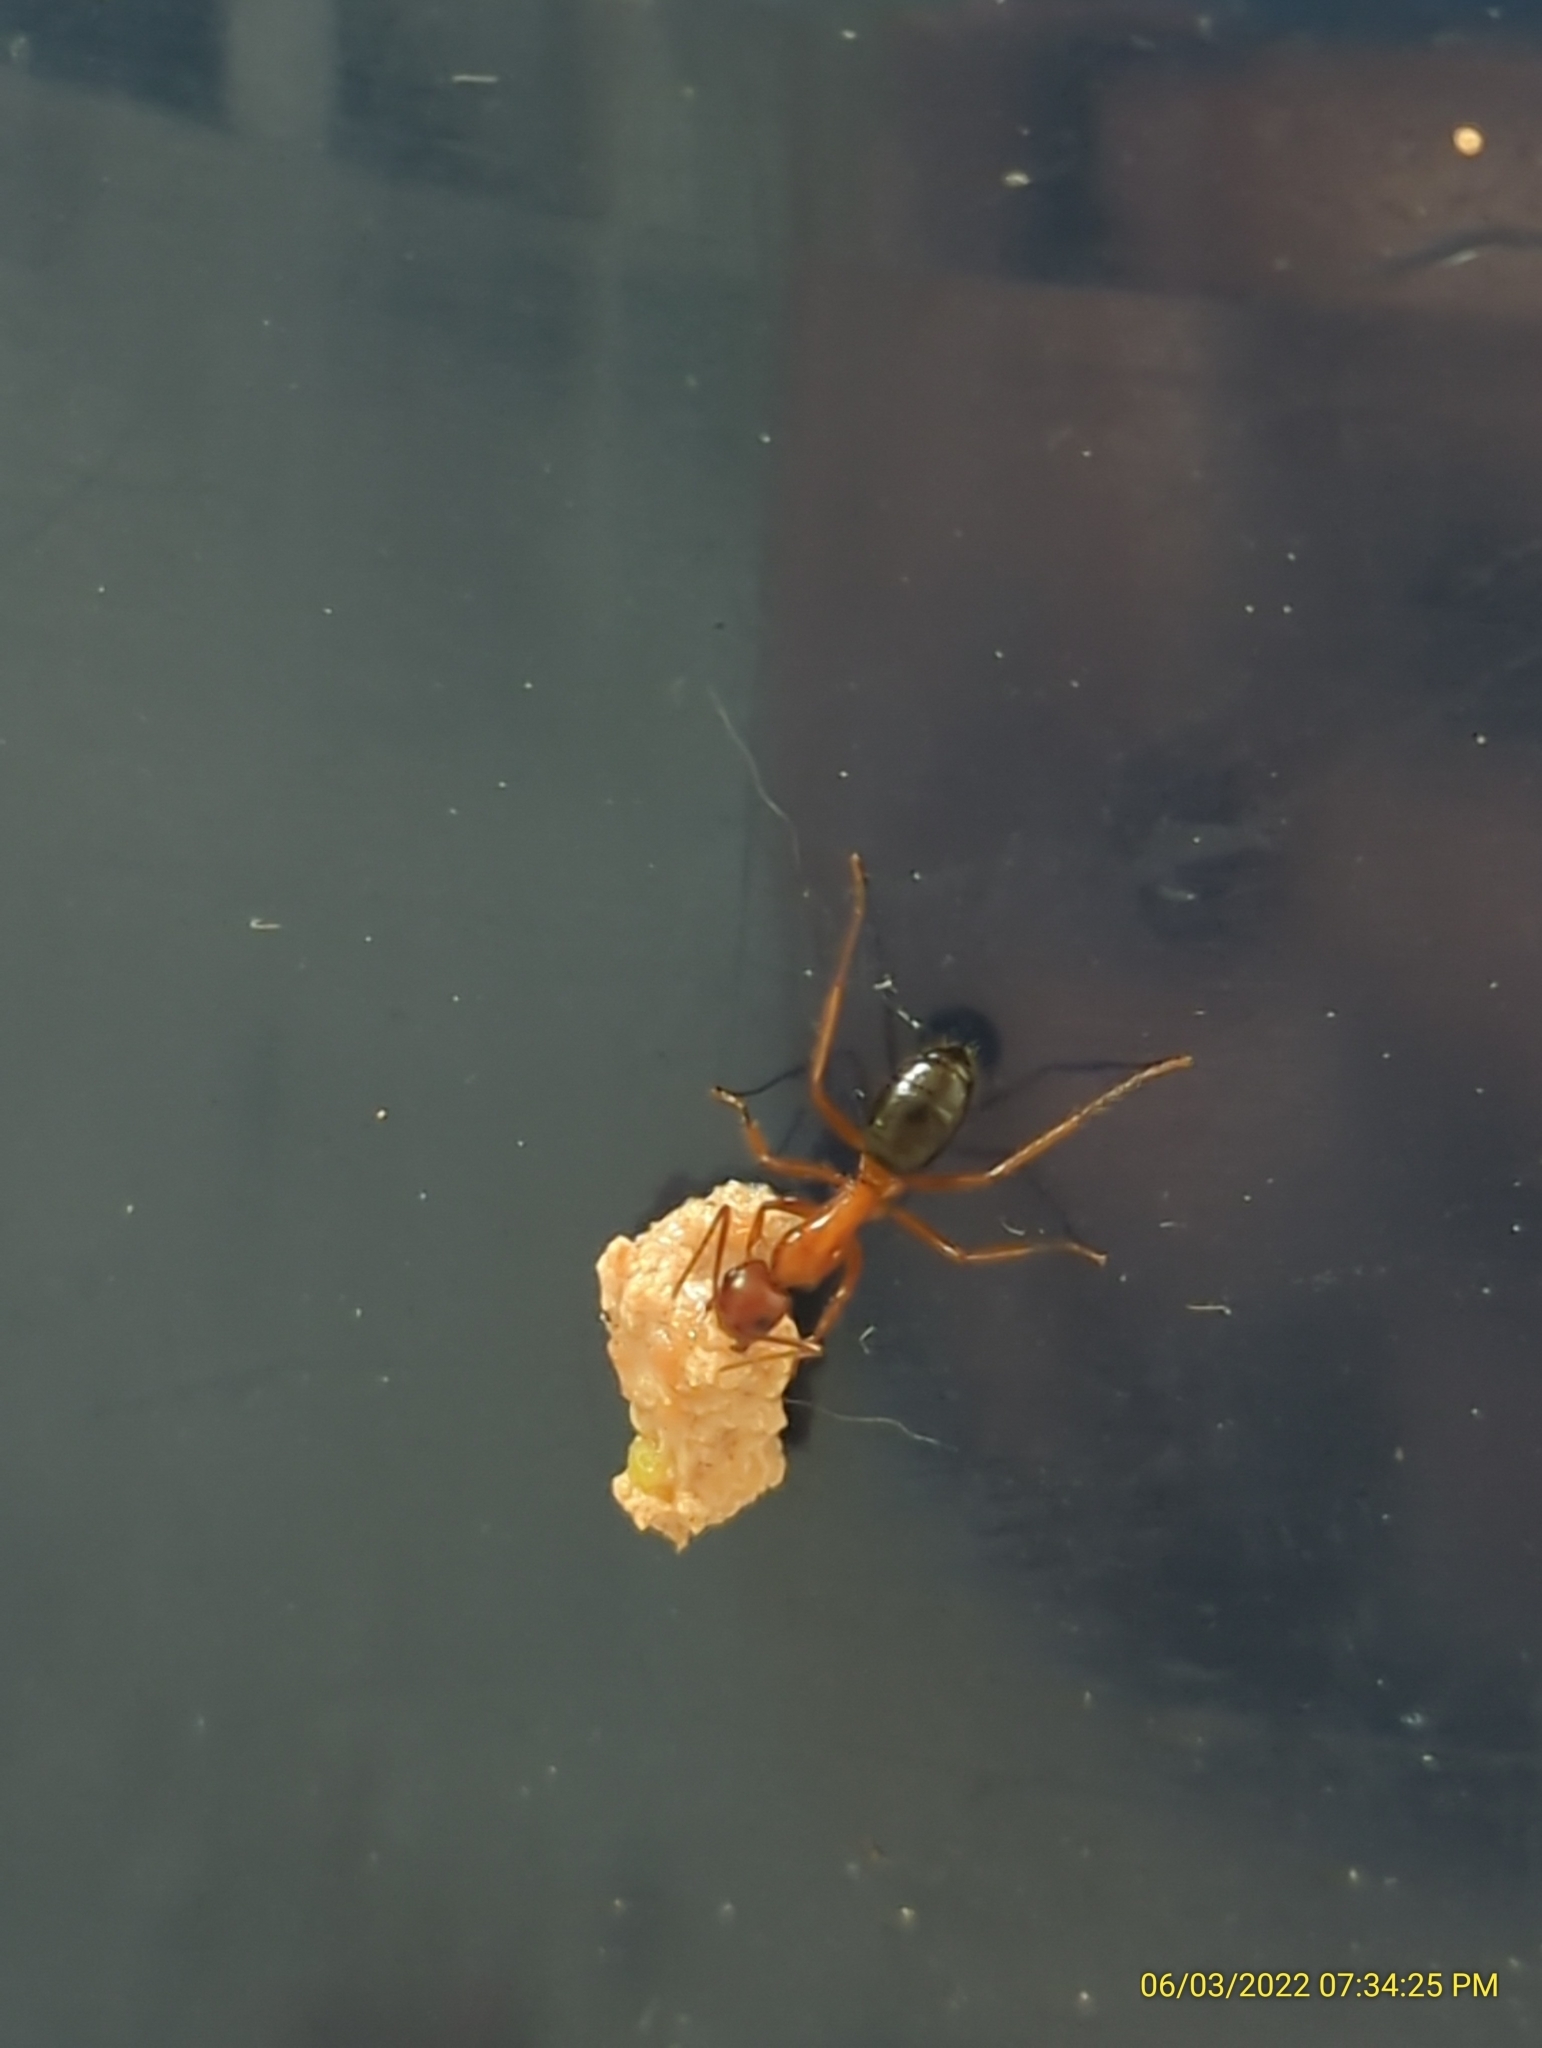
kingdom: Animalia
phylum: Arthropoda
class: Insecta
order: Hymenoptera
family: Formicidae
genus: Camponotus
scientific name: Camponotus floridanus
